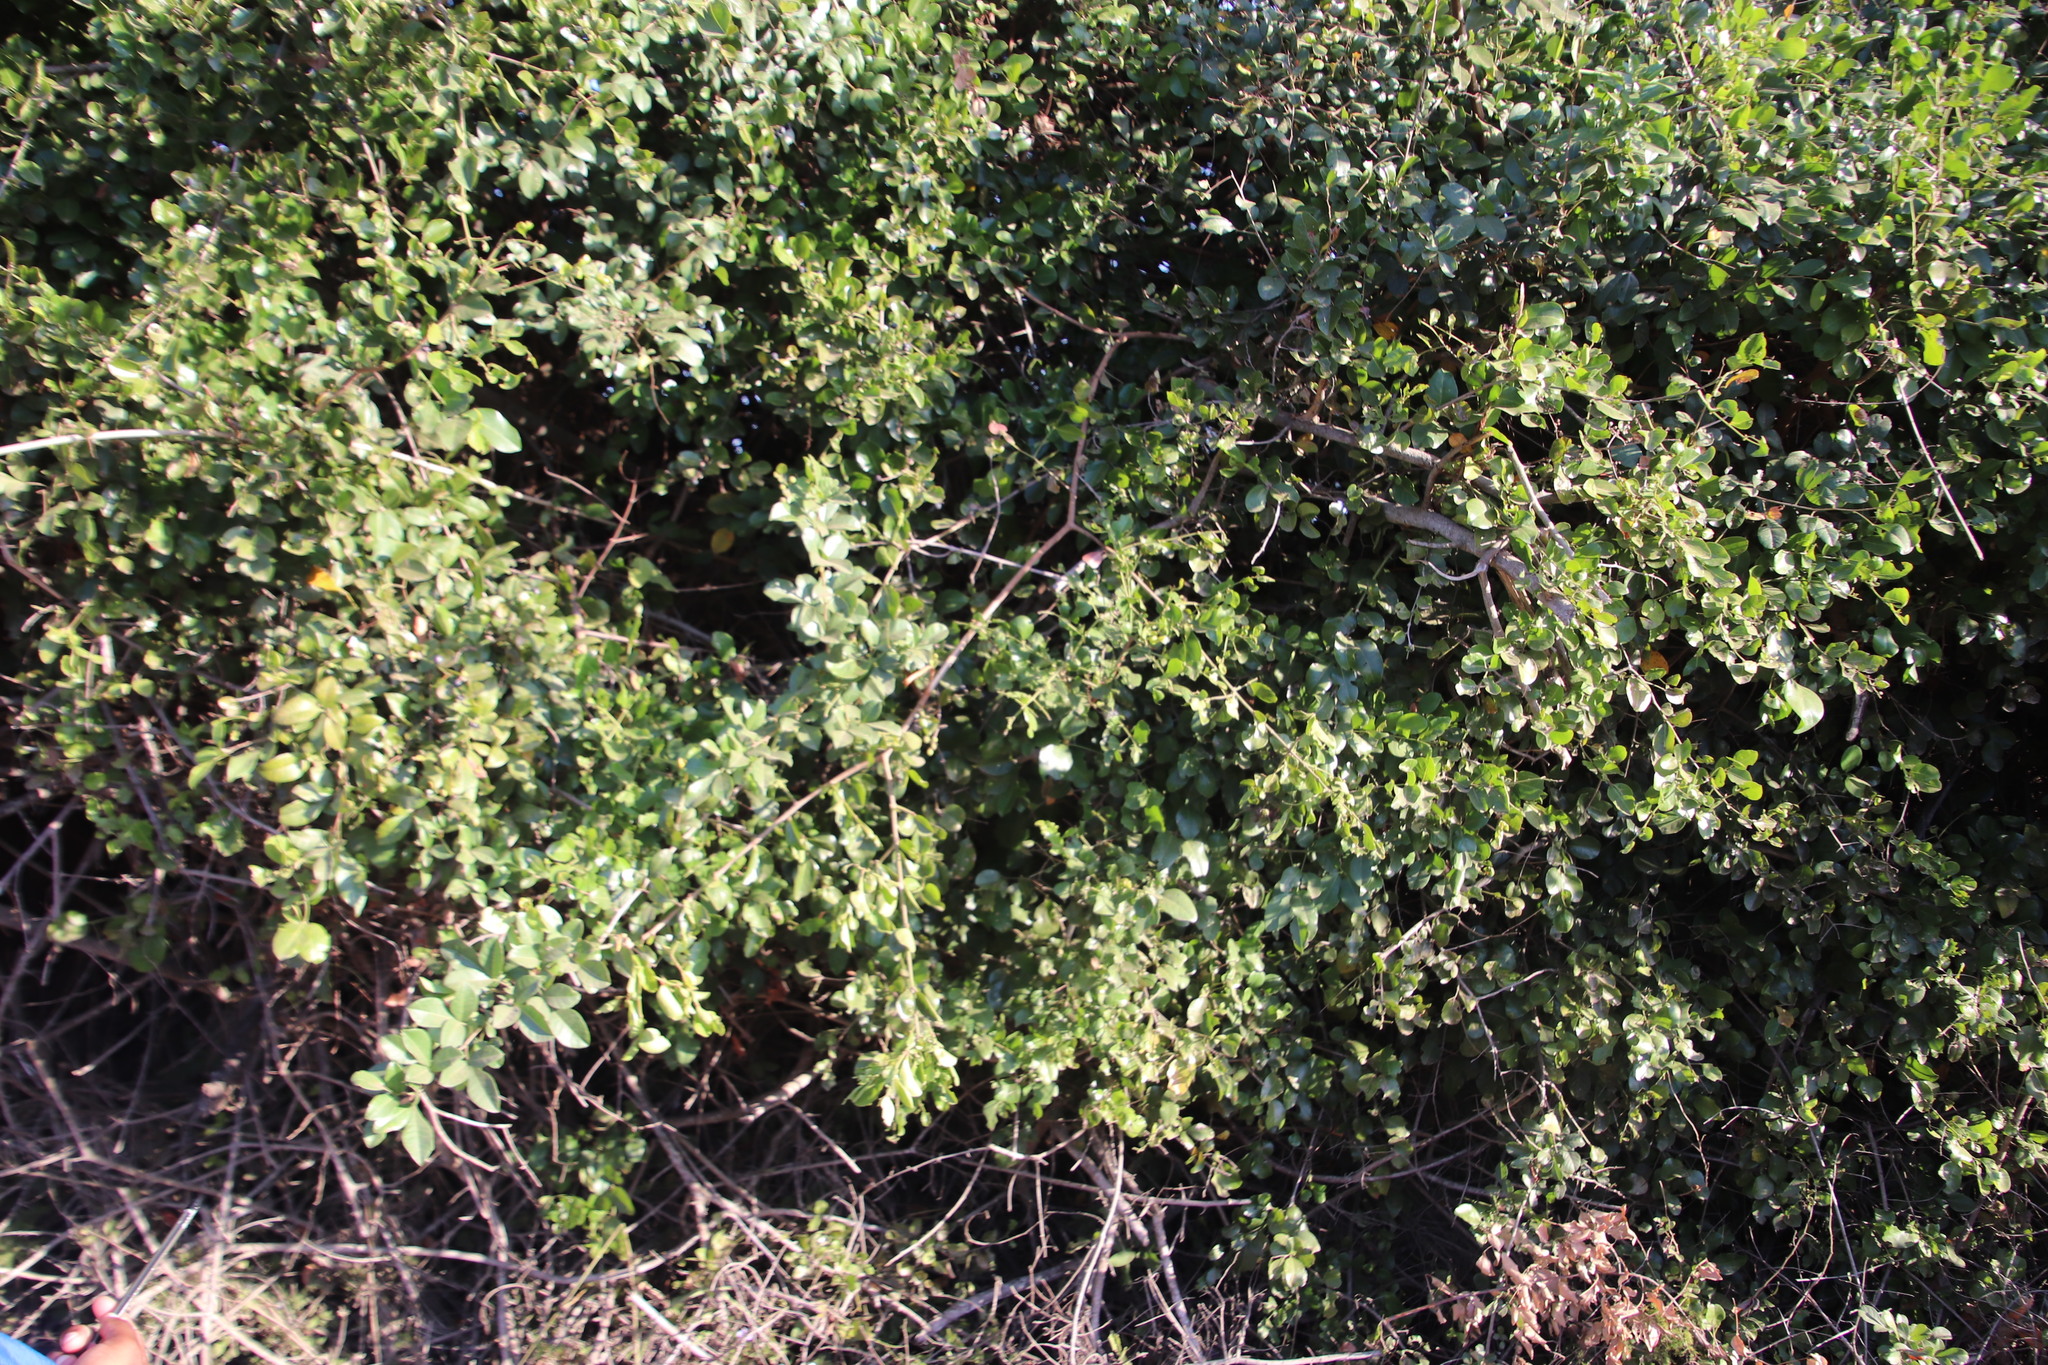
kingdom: Plantae
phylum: Tracheophyta
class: Magnoliopsida
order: Sapindales
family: Anacardiaceae
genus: Searsia
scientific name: Searsia pyroides
